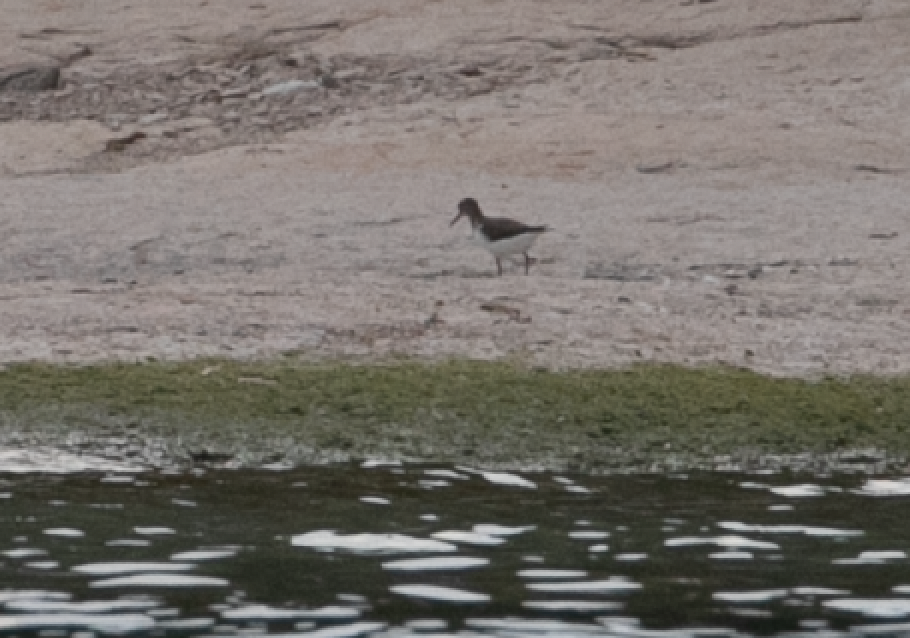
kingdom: Animalia
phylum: Chordata
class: Aves
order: Charadriiformes
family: Scolopacidae
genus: Actitis
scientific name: Actitis hypoleucos
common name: Common sandpiper
